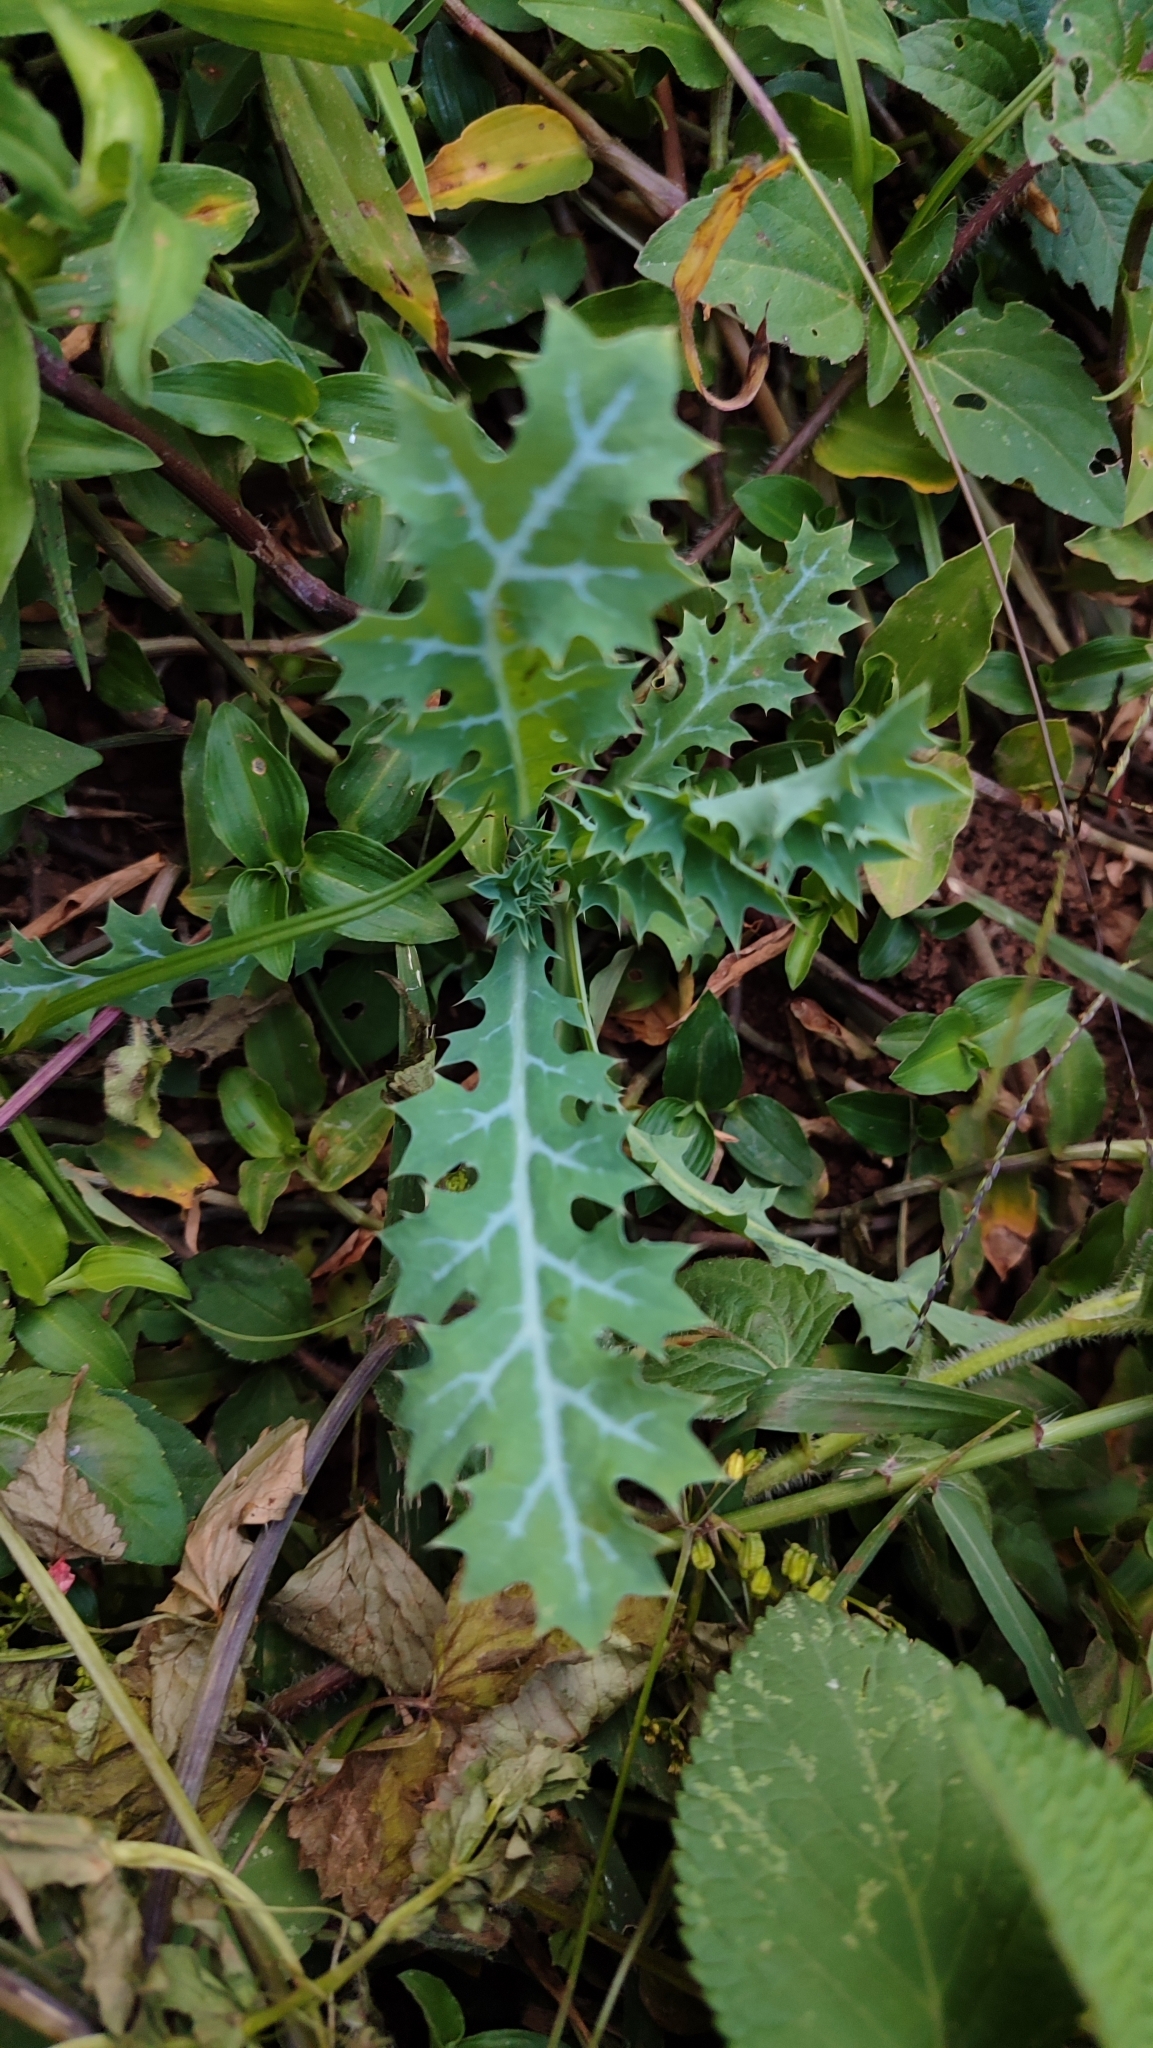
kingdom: Plantae
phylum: Tracheophyta
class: Magnoliopsida
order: Ranunculales
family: Papaveraceae
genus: Argemone
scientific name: Argemone ochroleuca
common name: White-flower mexican-poppy
